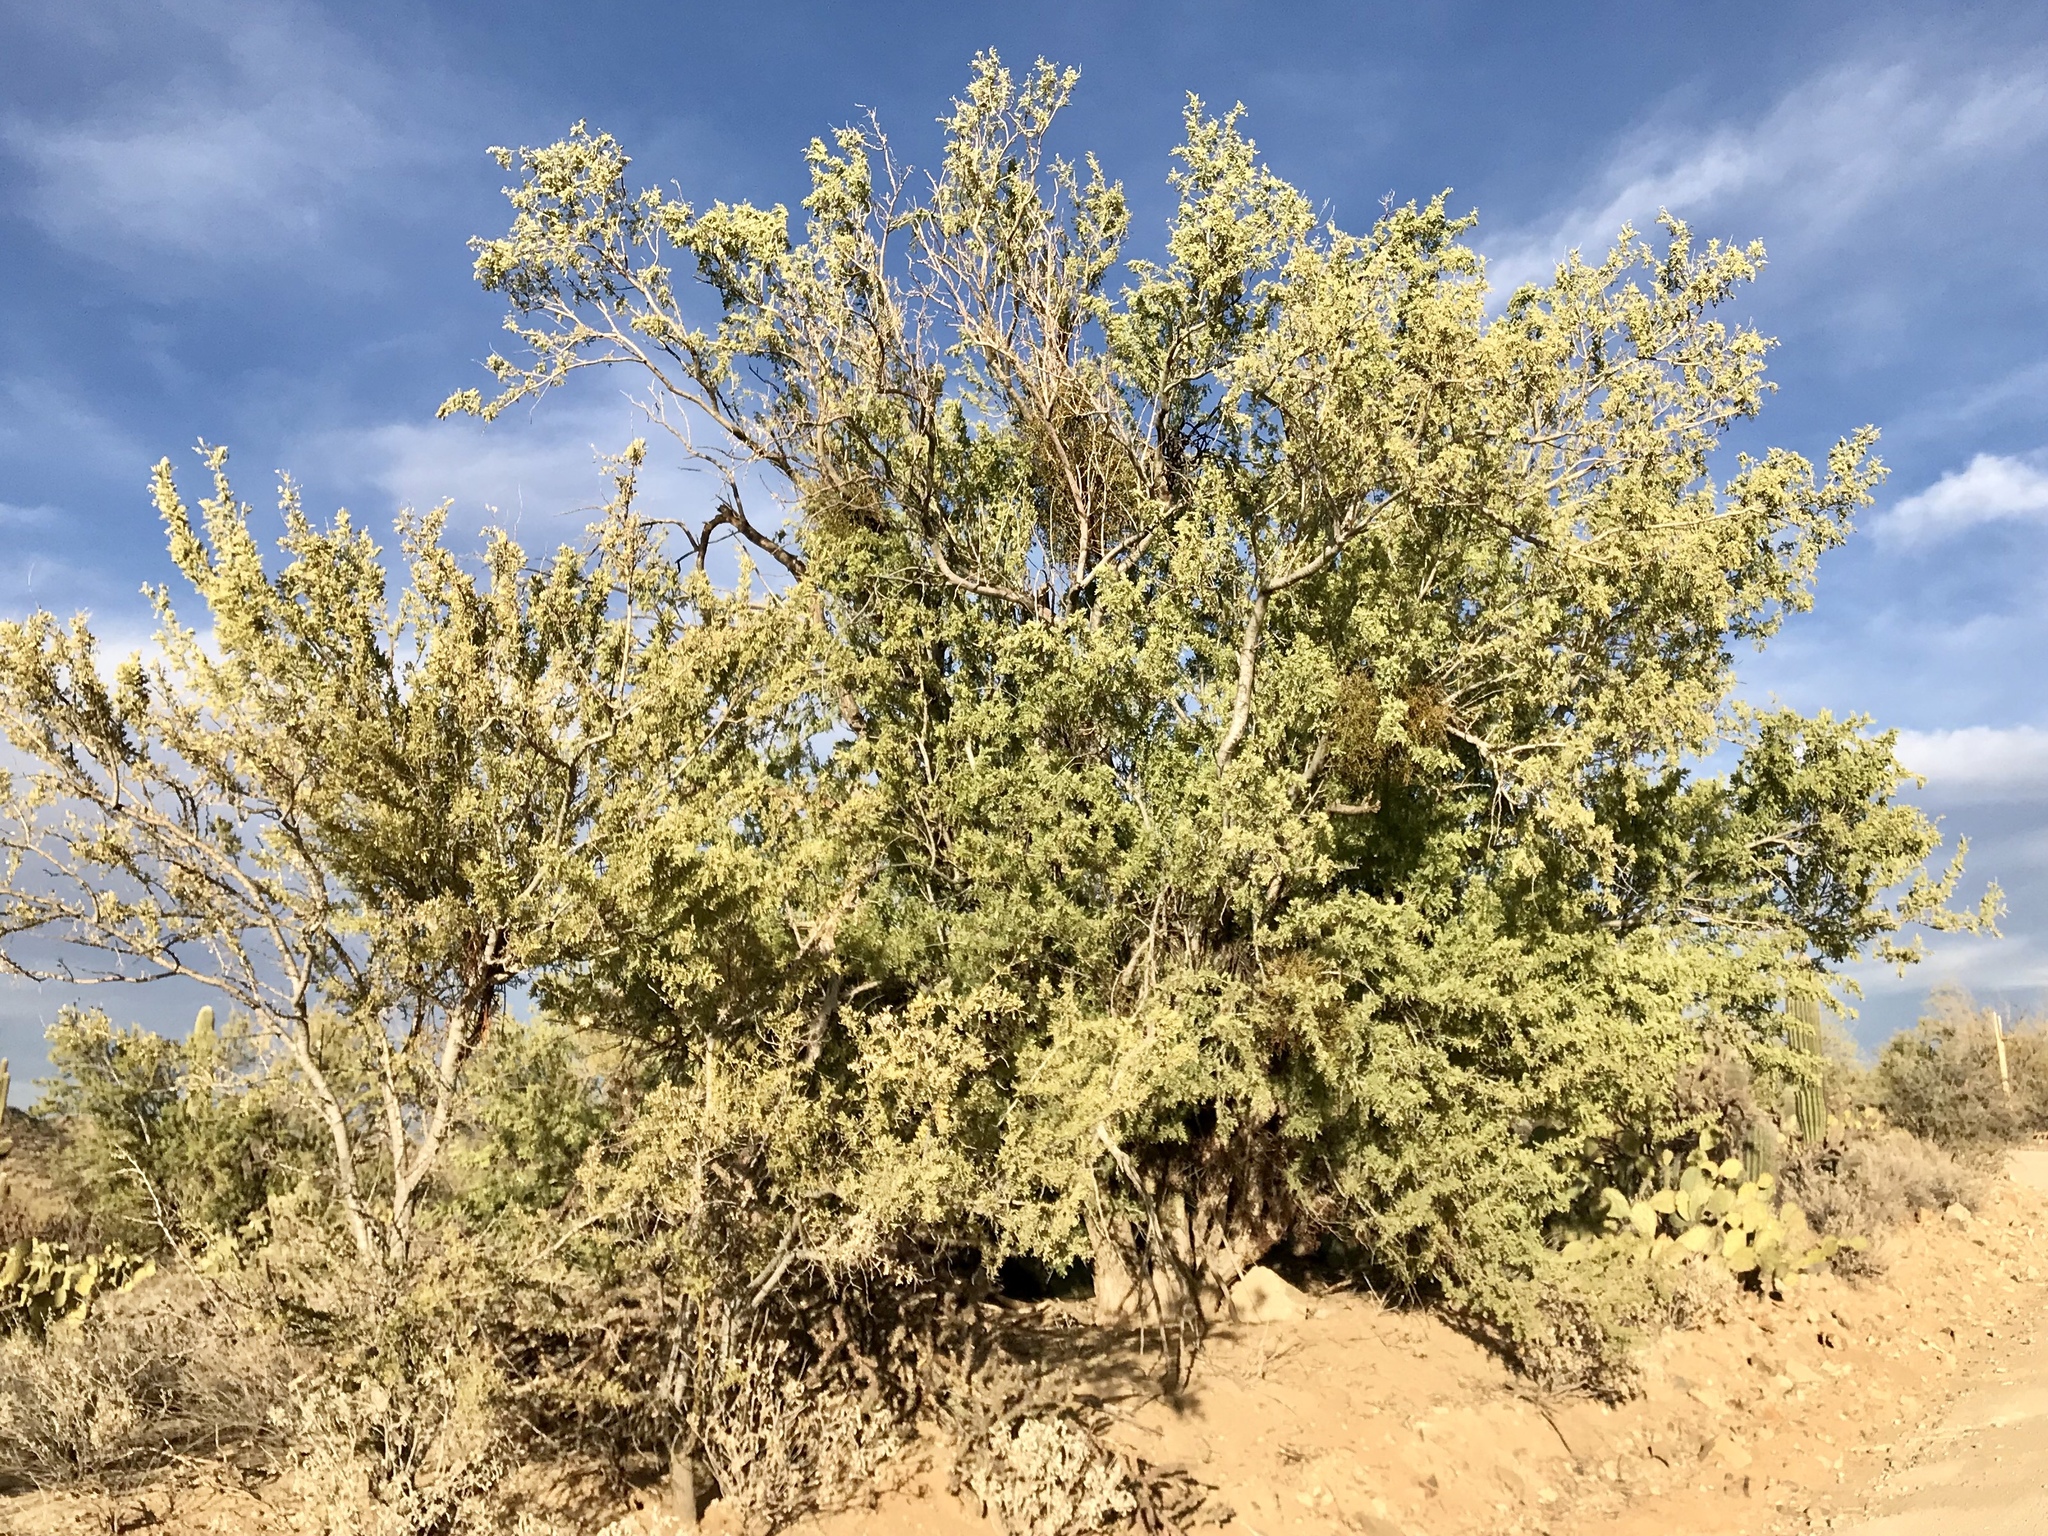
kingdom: Plantae
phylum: Tracheophyta
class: Magnoliopsida
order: Fabales
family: Fabaceae
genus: Olneya
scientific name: Olneya tesota
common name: Desert ironwood
